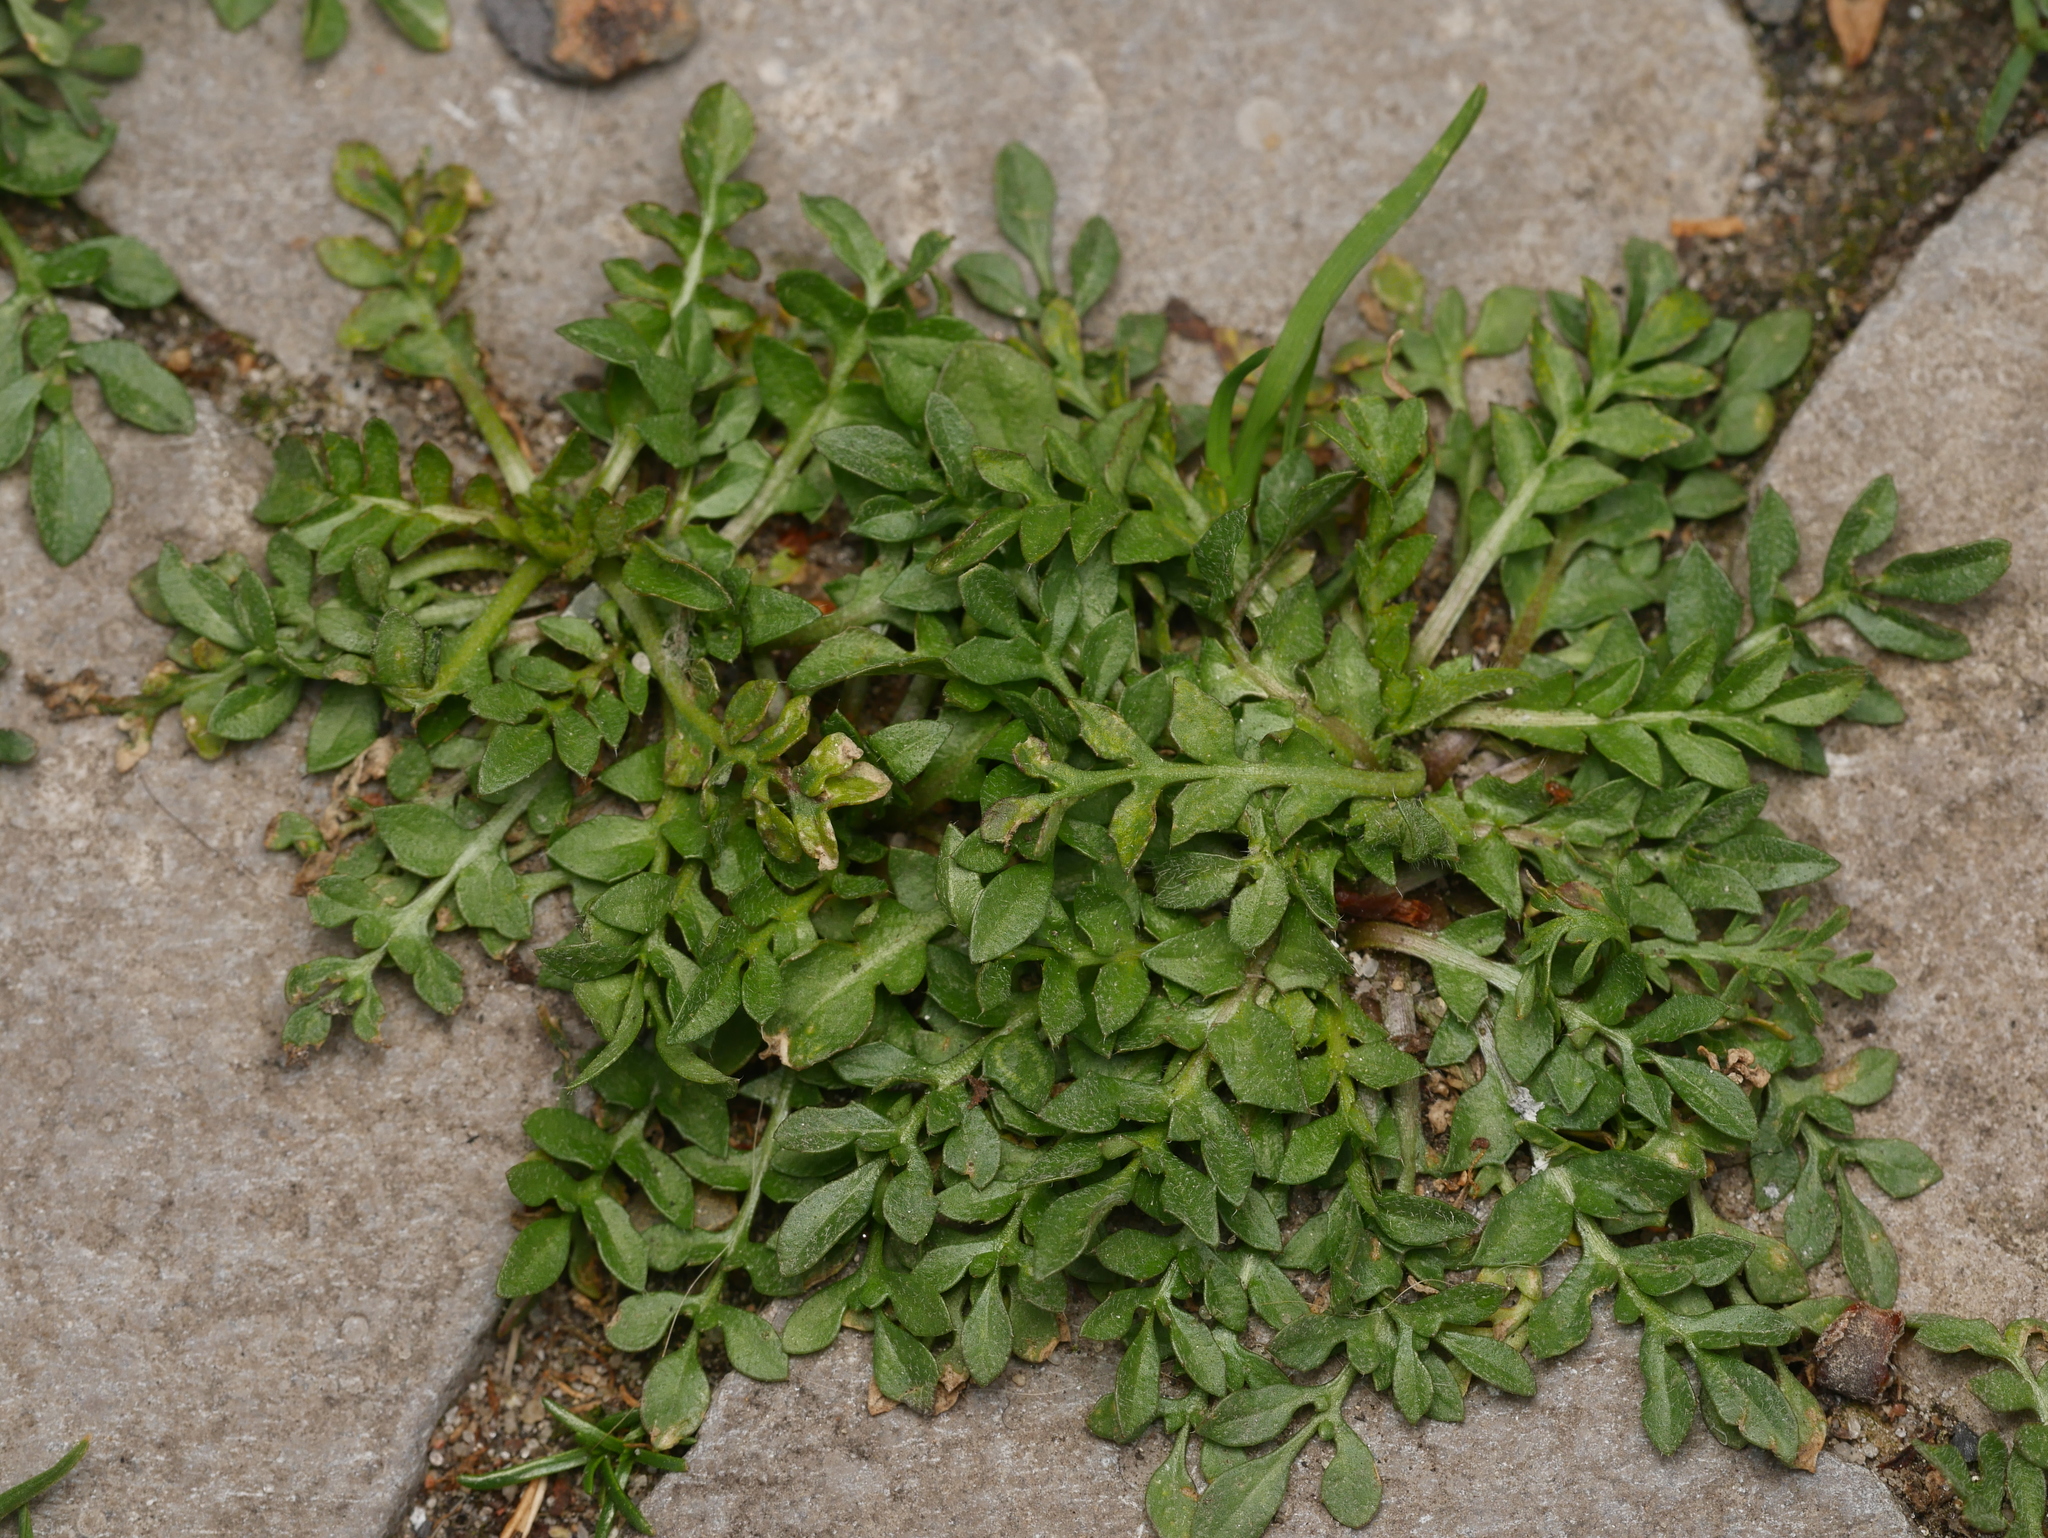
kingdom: Plantae
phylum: Tracheophyta
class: Magnoliopsida
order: Brassicales
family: Brassicaceae
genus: Lepidium
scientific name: Lepidium didymum
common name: Lesser swinecress
